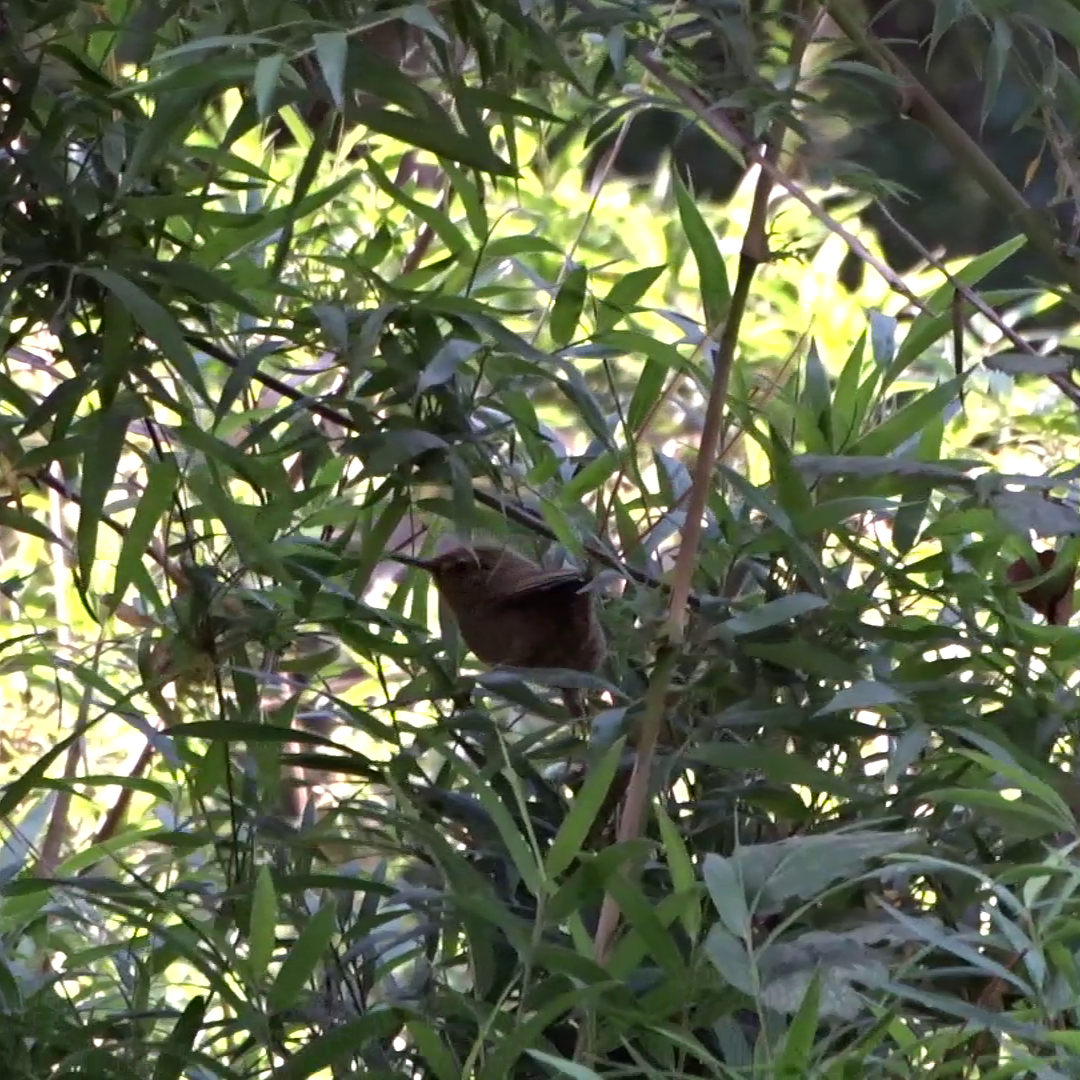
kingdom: Animalia
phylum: Chordata
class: Aves
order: Passeriformes
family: Furnariidae
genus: Sylviorthorhynchus
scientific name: Sylviorthorhynchus desmursii
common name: Des murs's wiretail
